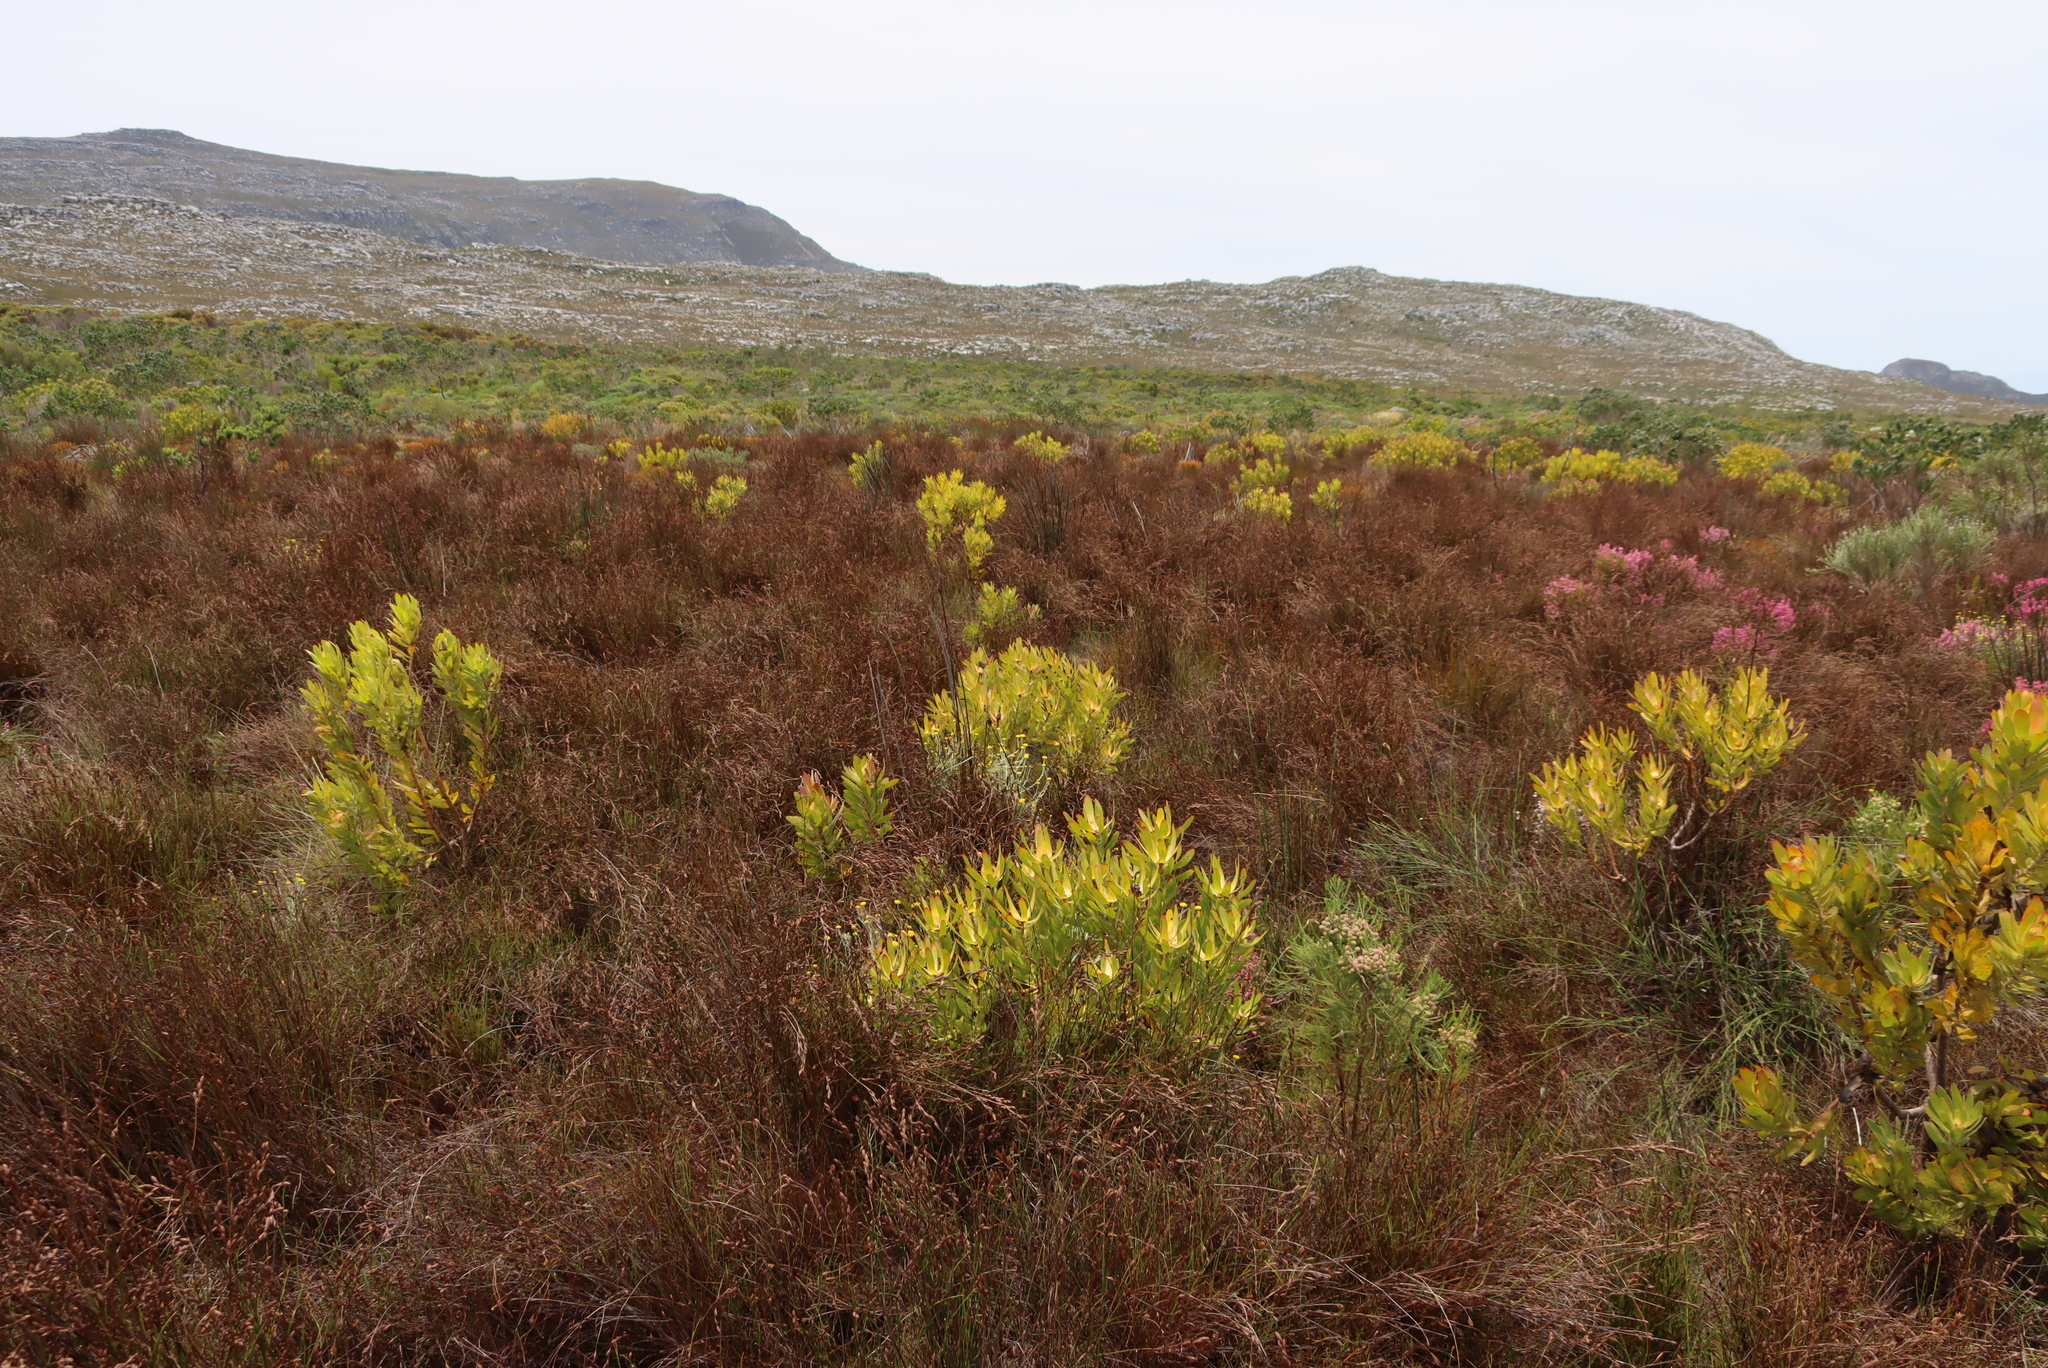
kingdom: Plantae
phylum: Tracheophyta
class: Magnoliopsida
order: Proteales
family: Proteaceae
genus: Leucadendron
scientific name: Leucadendron laureolum
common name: Golden sunshinebush
